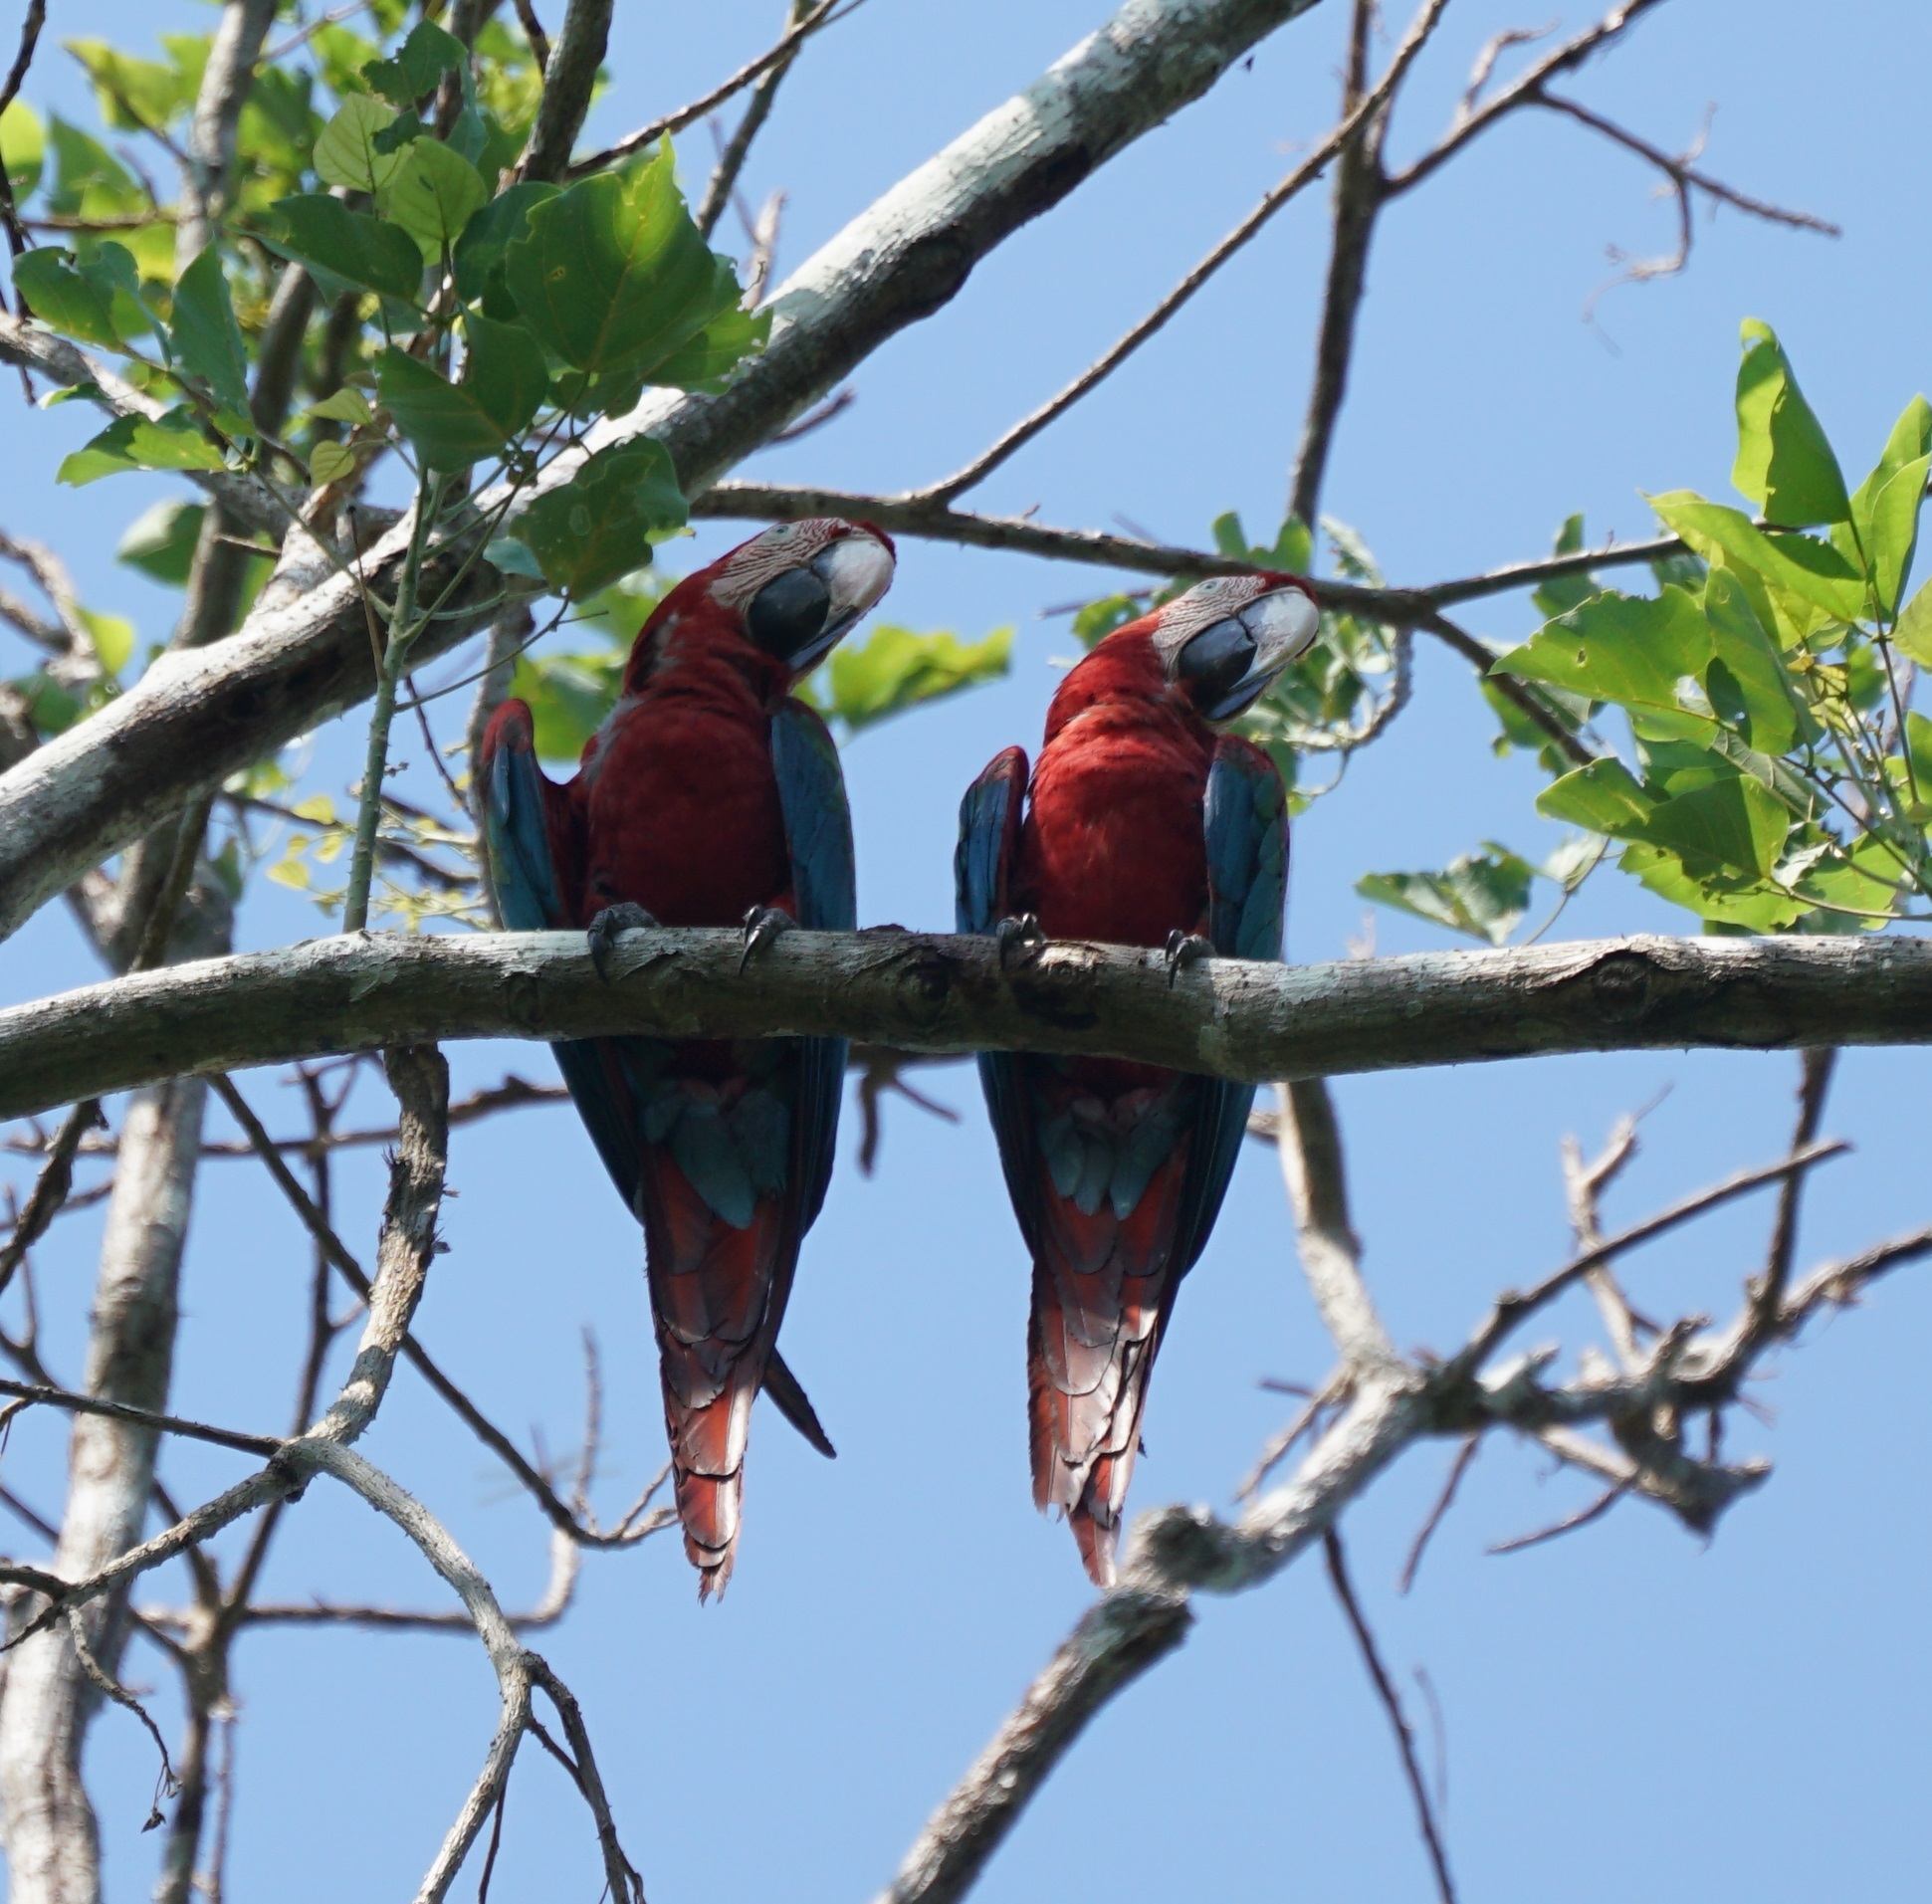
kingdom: Animalia
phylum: Chordata
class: Aves
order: Psittaciformes
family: Psittacidae
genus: Ara
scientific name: Ara chloropterus
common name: Red-and-green macaw
